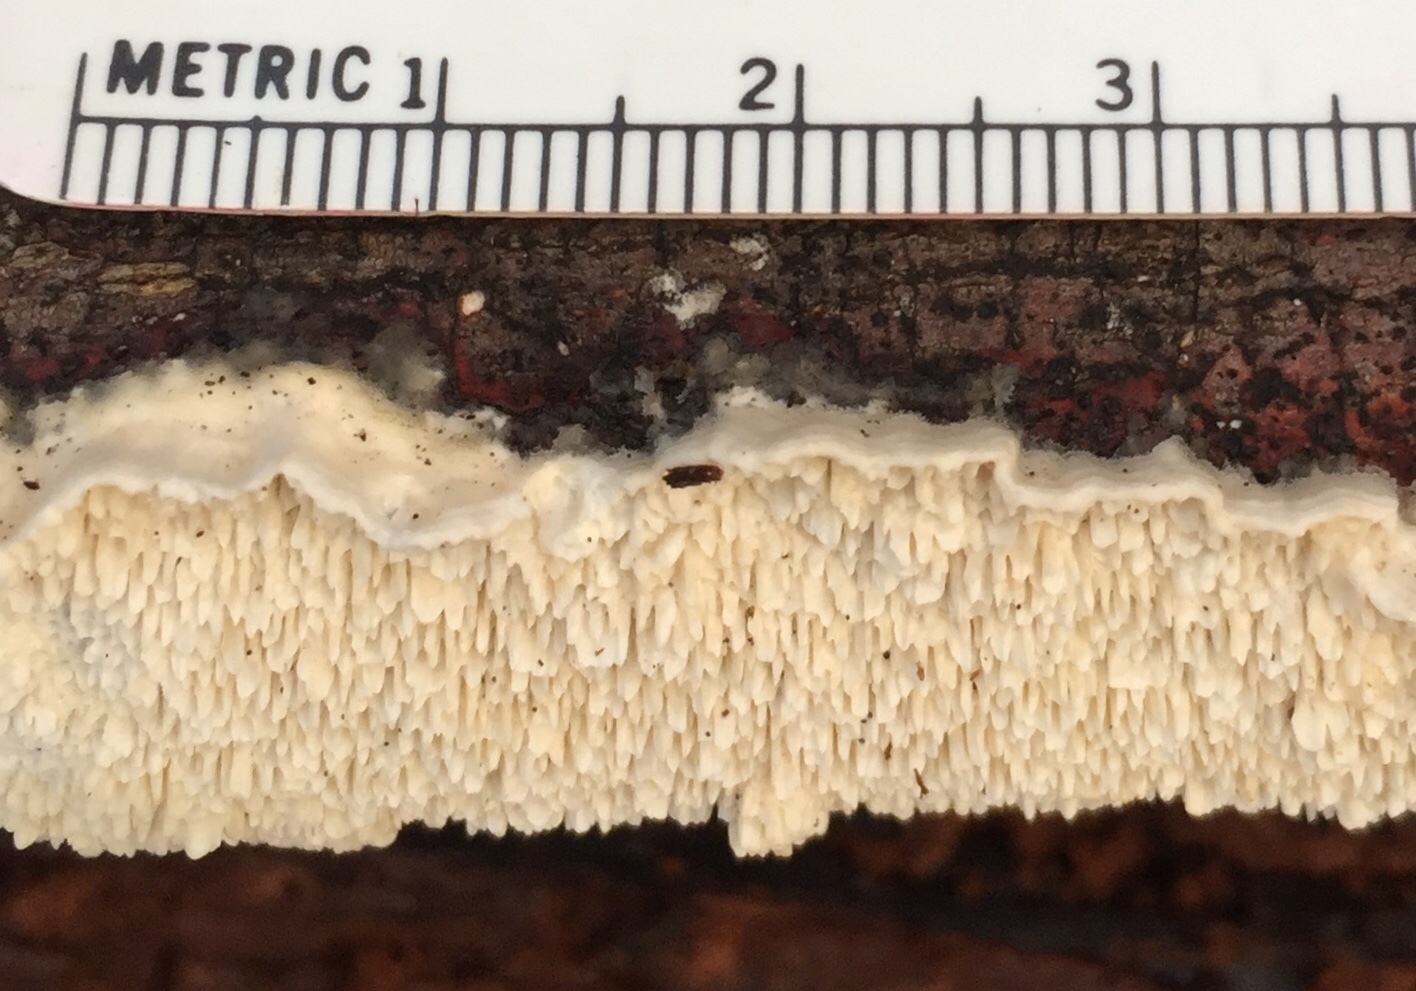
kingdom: Fungi
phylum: Basidiomycota
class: Agaricomycetes
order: Polyporales
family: Irpicaceae
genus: Irpex
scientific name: Irpex lacteus
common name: Milk-white toothed polypore
